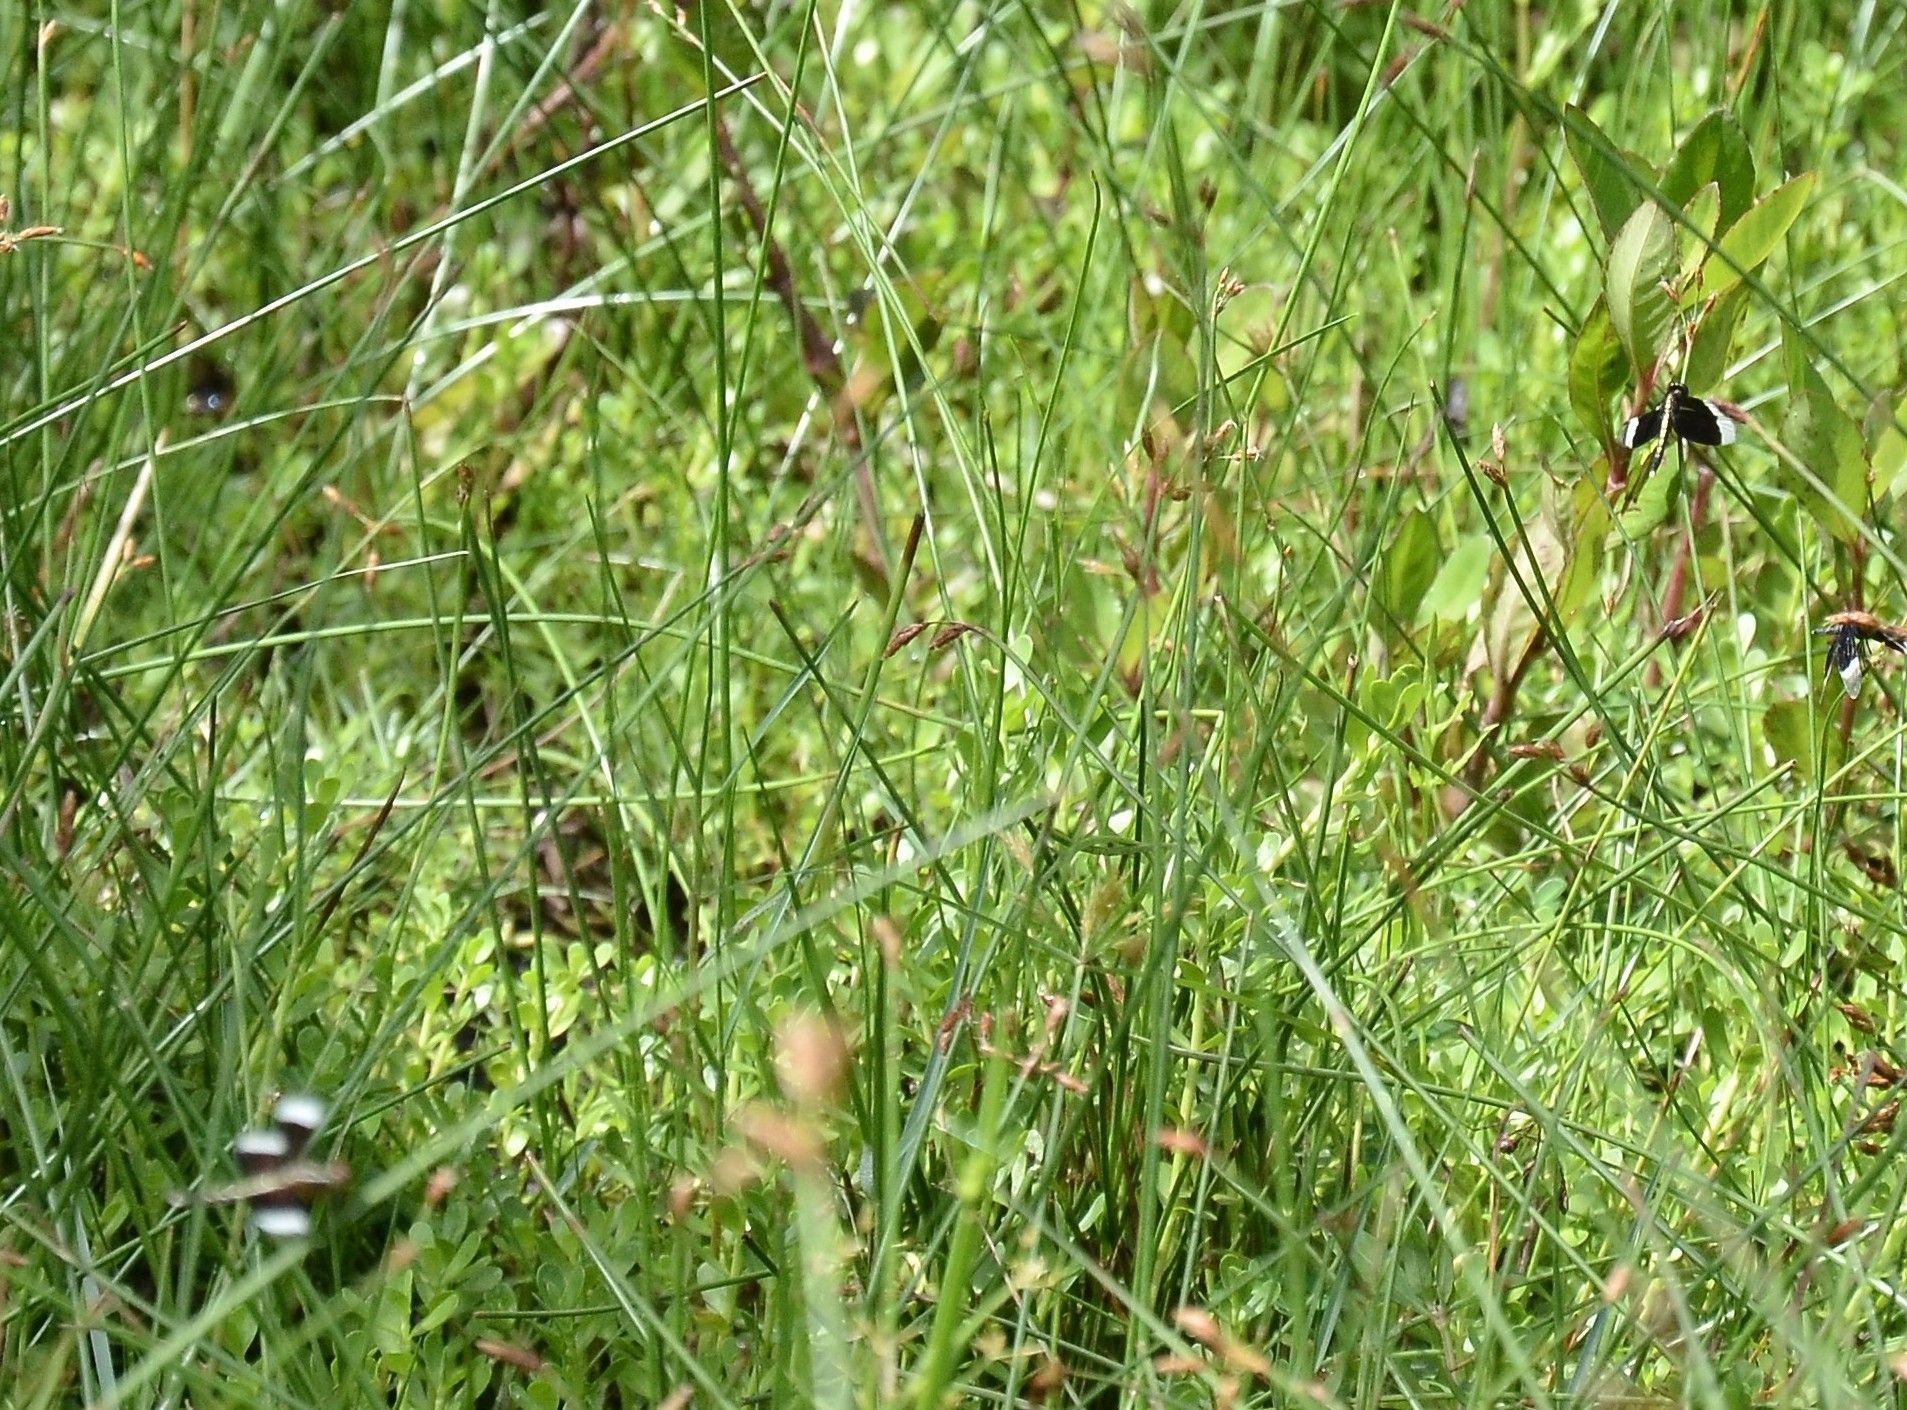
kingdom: Animalia
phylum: Arthropoda
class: Insecta
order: Odonata
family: Libellulidae
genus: Neurothemis
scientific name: Neurothemis tullia
